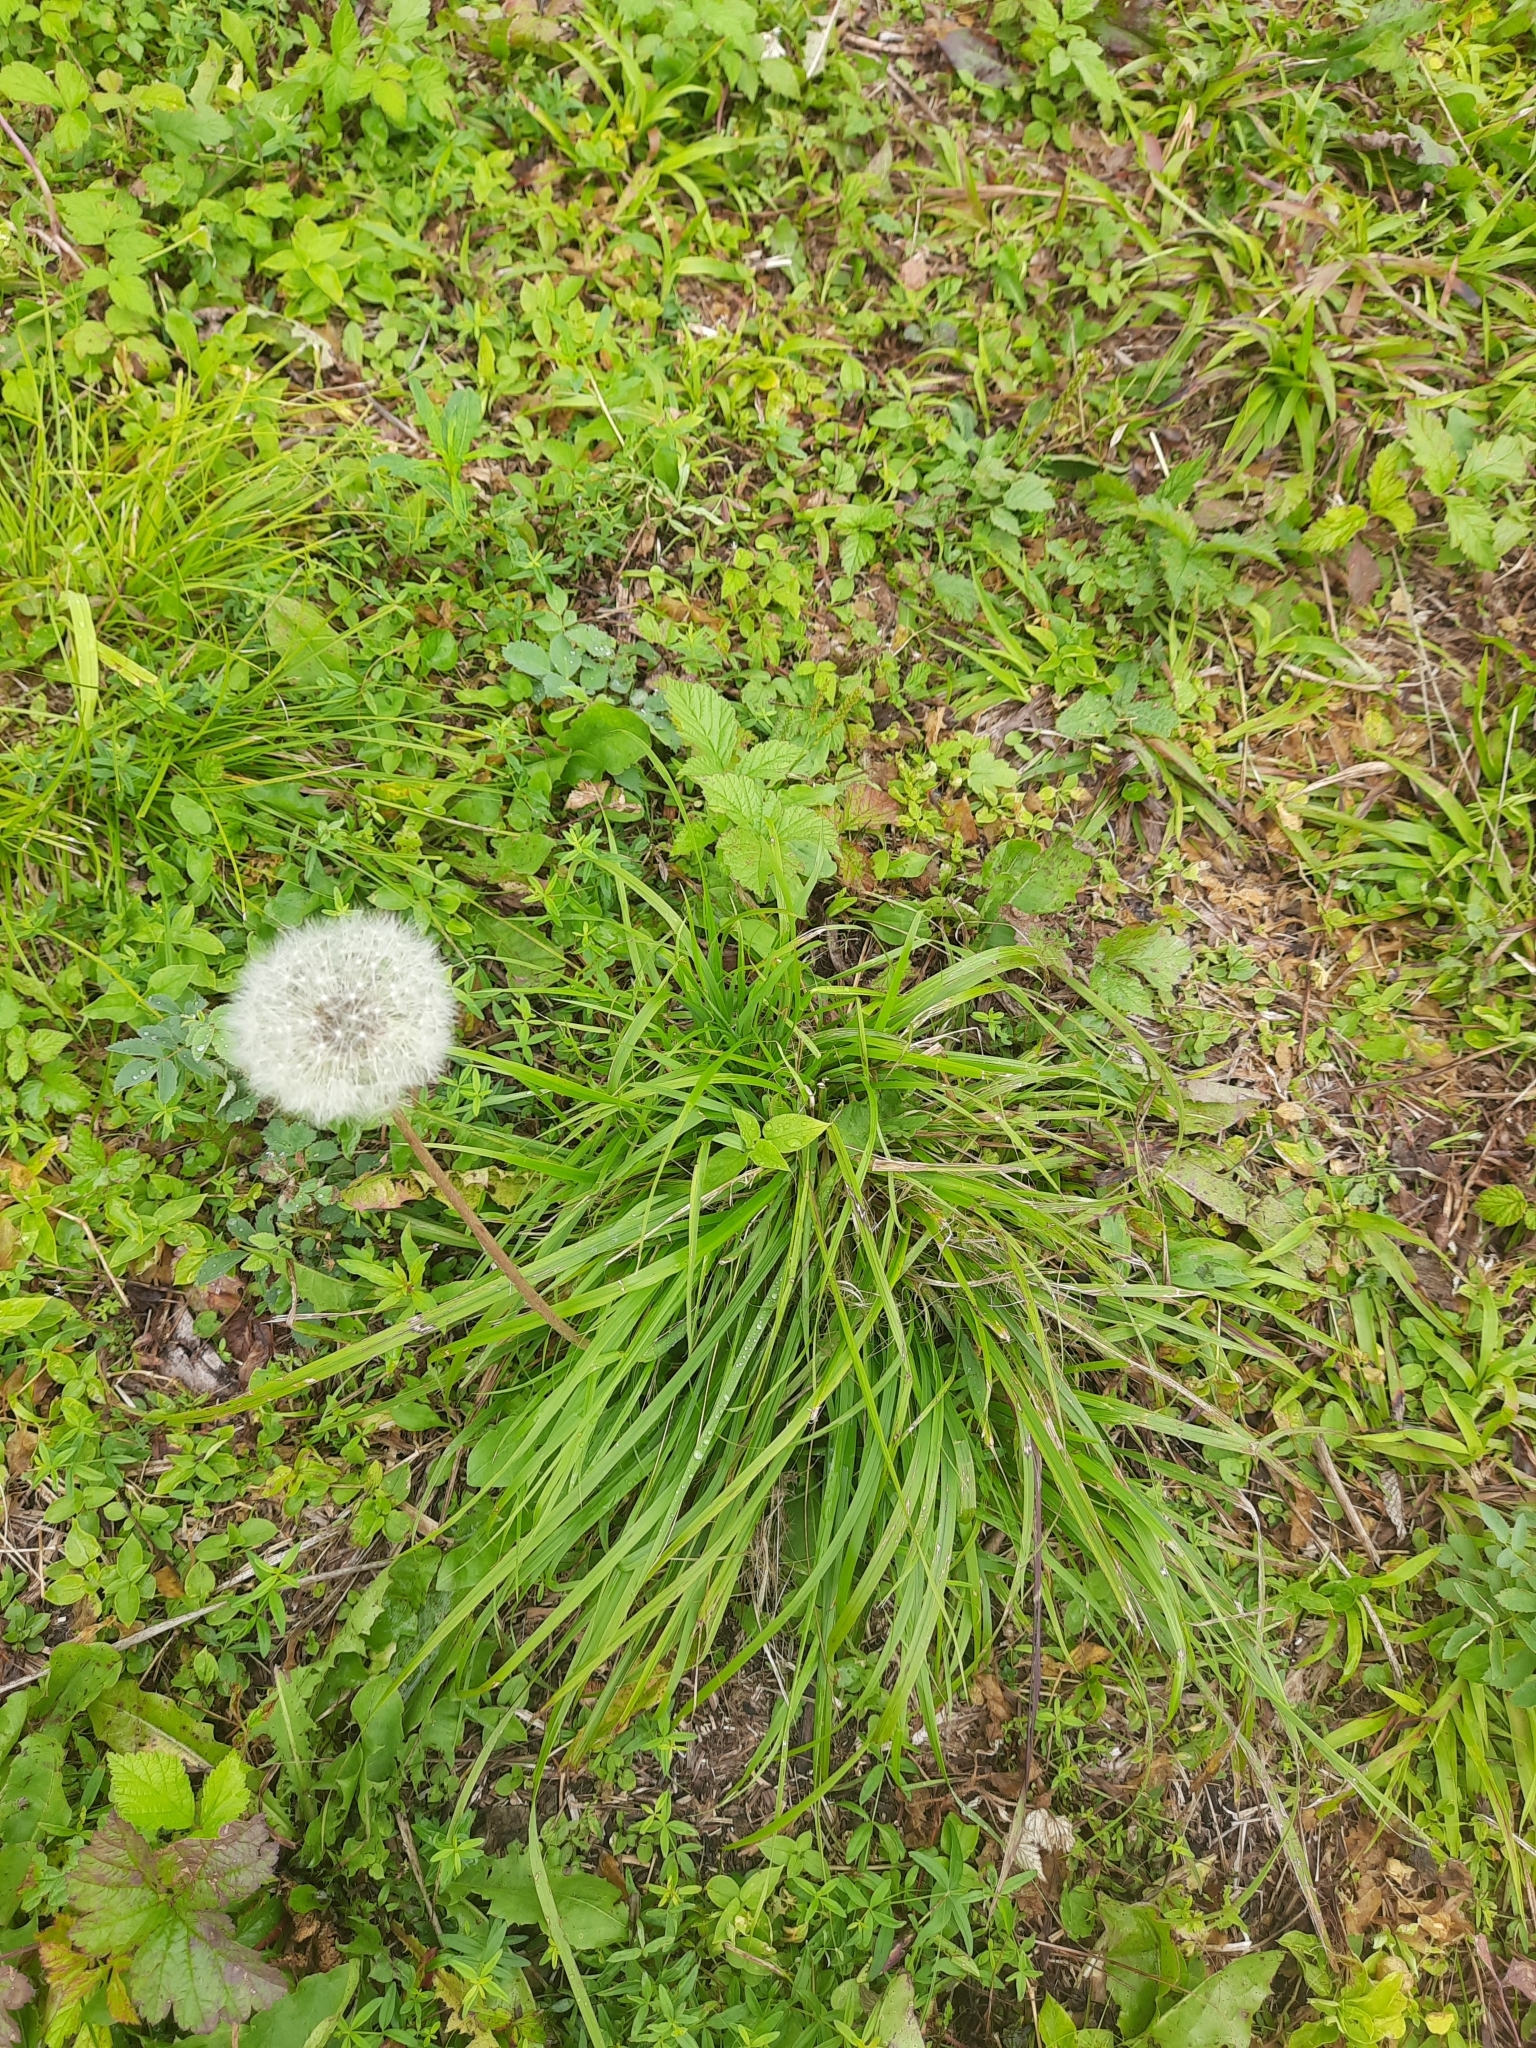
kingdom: Plantae
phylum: Tracheophyta
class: Magnoliopsida
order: Asterales
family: Asteraceae
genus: Taraxacum
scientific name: Taraxacum officinale
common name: Common dandelion
